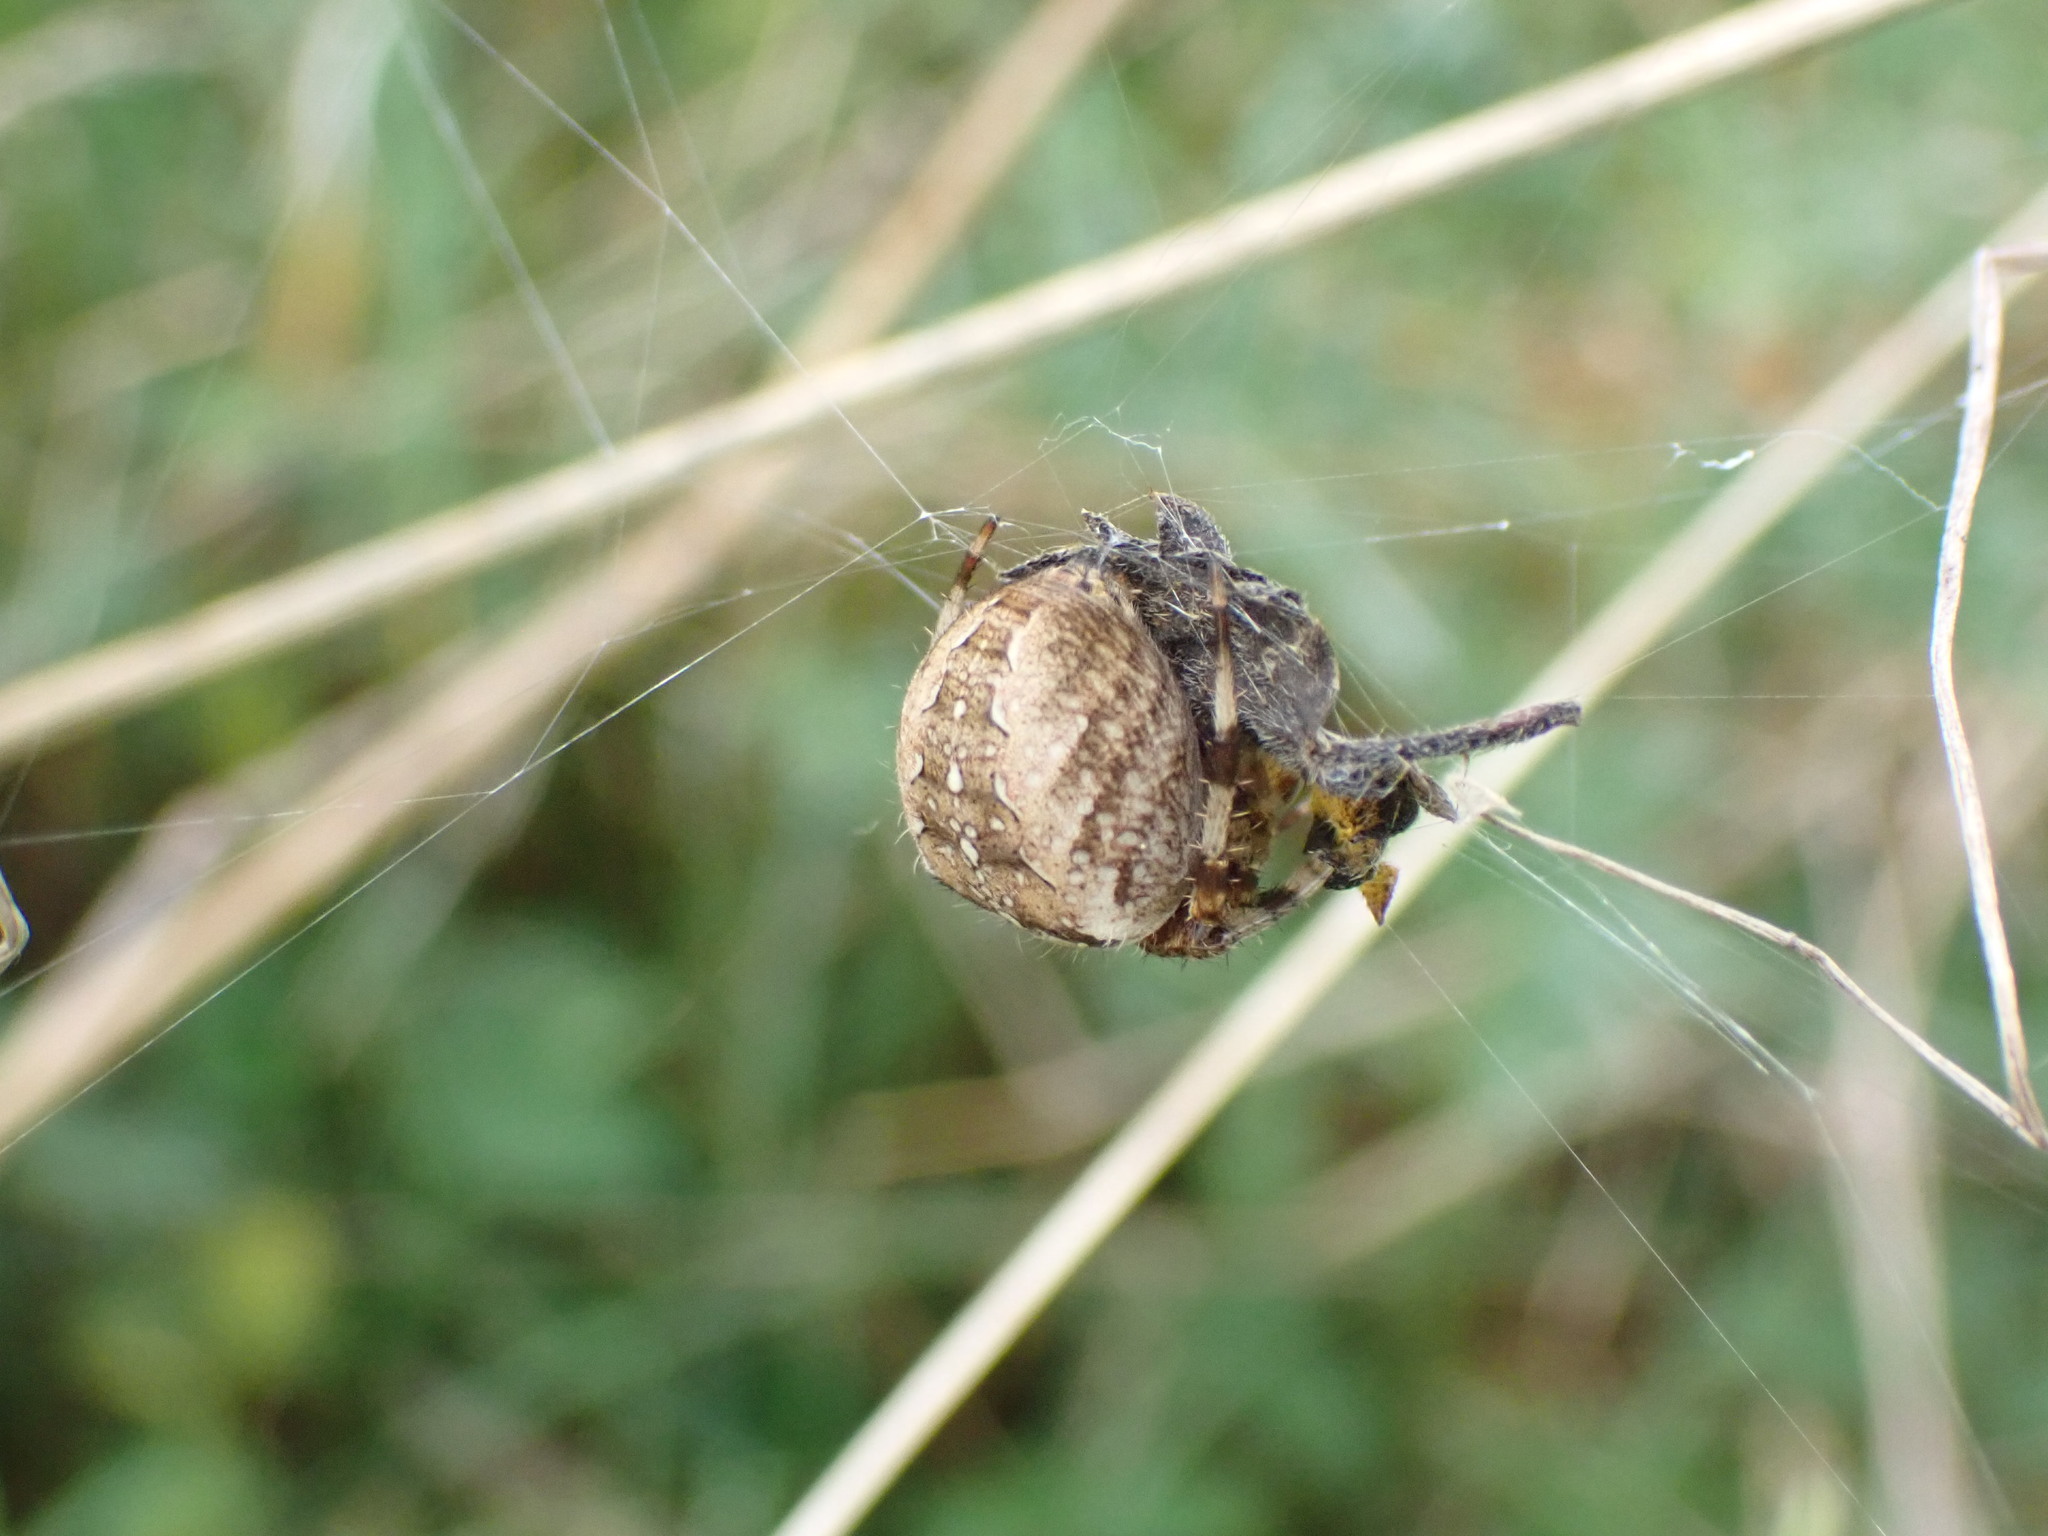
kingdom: Animalia
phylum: Arthropoda
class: Arachnida
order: Araneae
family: Araneidae
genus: Araneus
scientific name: Araneus diadematus
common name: Cross orbweaver
